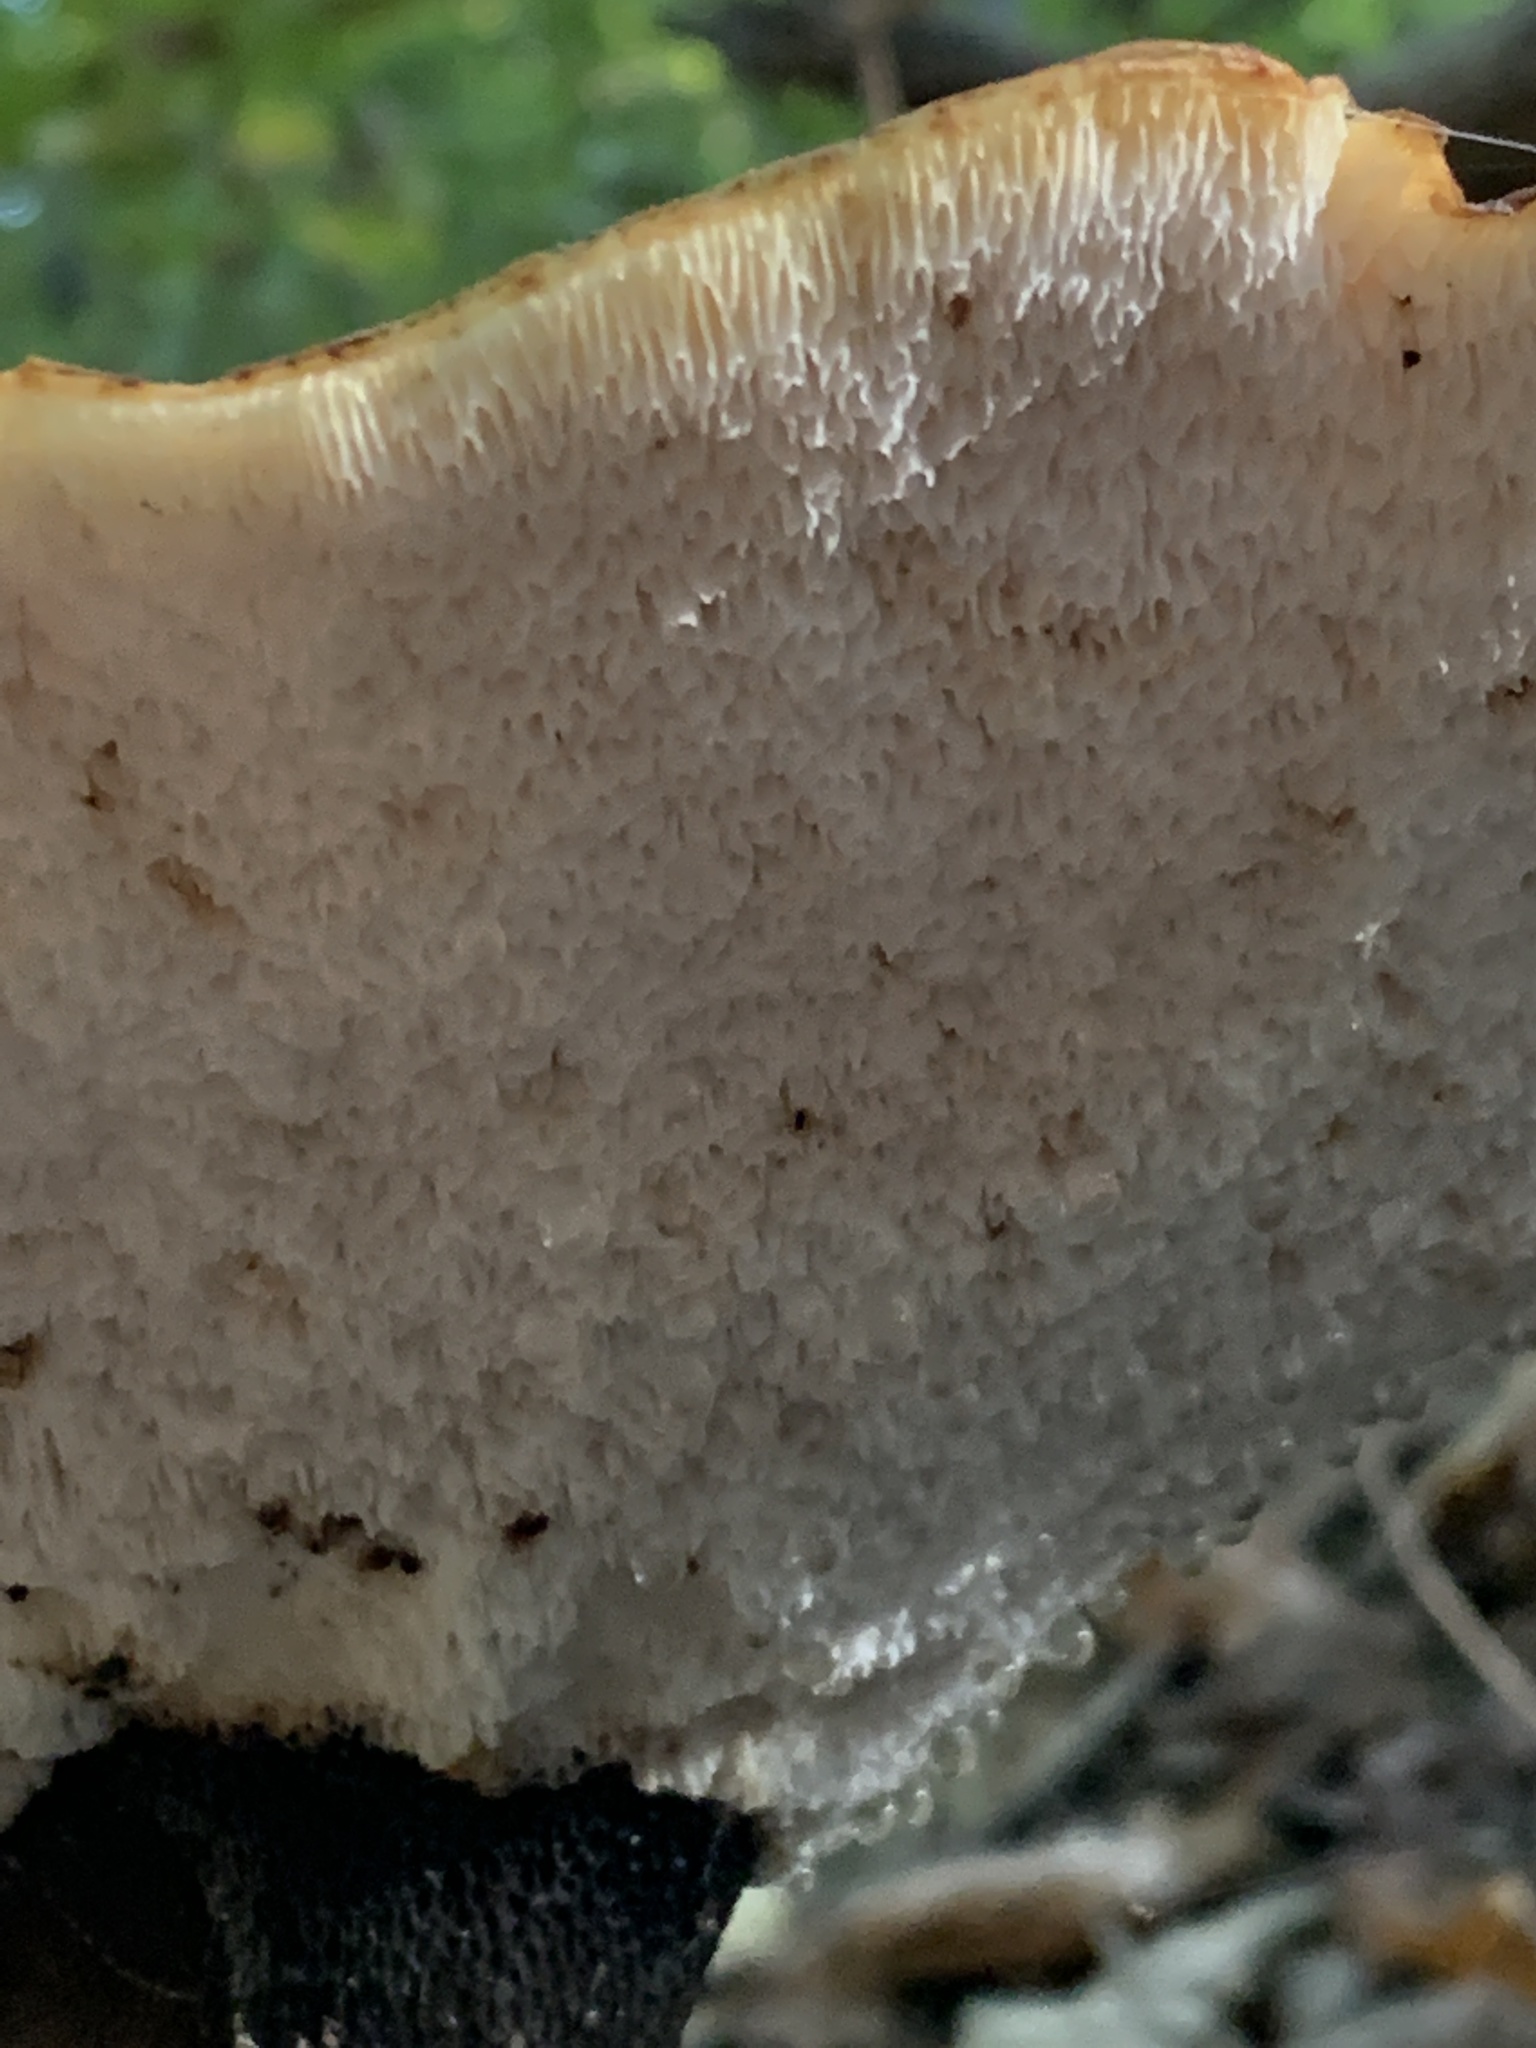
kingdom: Fungi
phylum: Basidiomycota
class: Agaricomycetes
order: Polyporales
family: Polyporaceae
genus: Cerioporus
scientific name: Cerioporus squamosus
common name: Dryad's saddle
